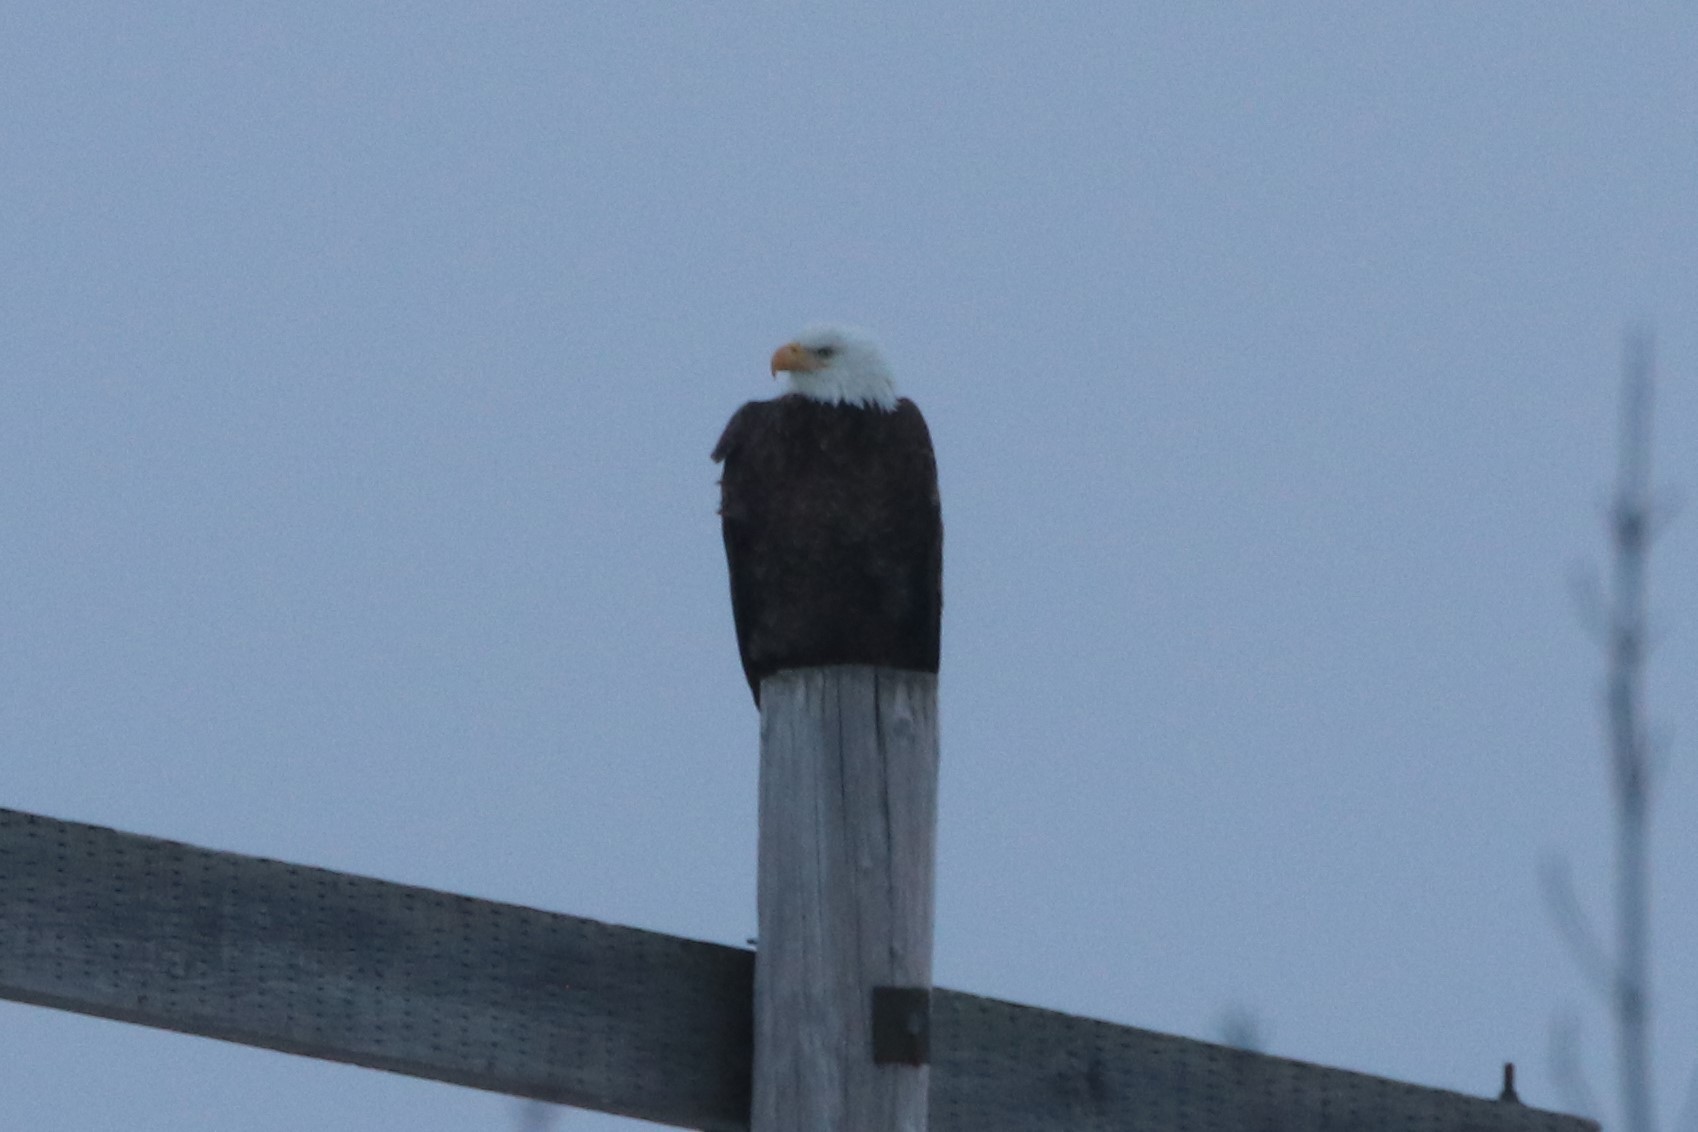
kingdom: Animalia
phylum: Chordata
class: Aves
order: Accipitriformes
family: Accipitridae
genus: Haliaeetus
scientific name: Haliaeetus leucocephalus
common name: Bald eagle
